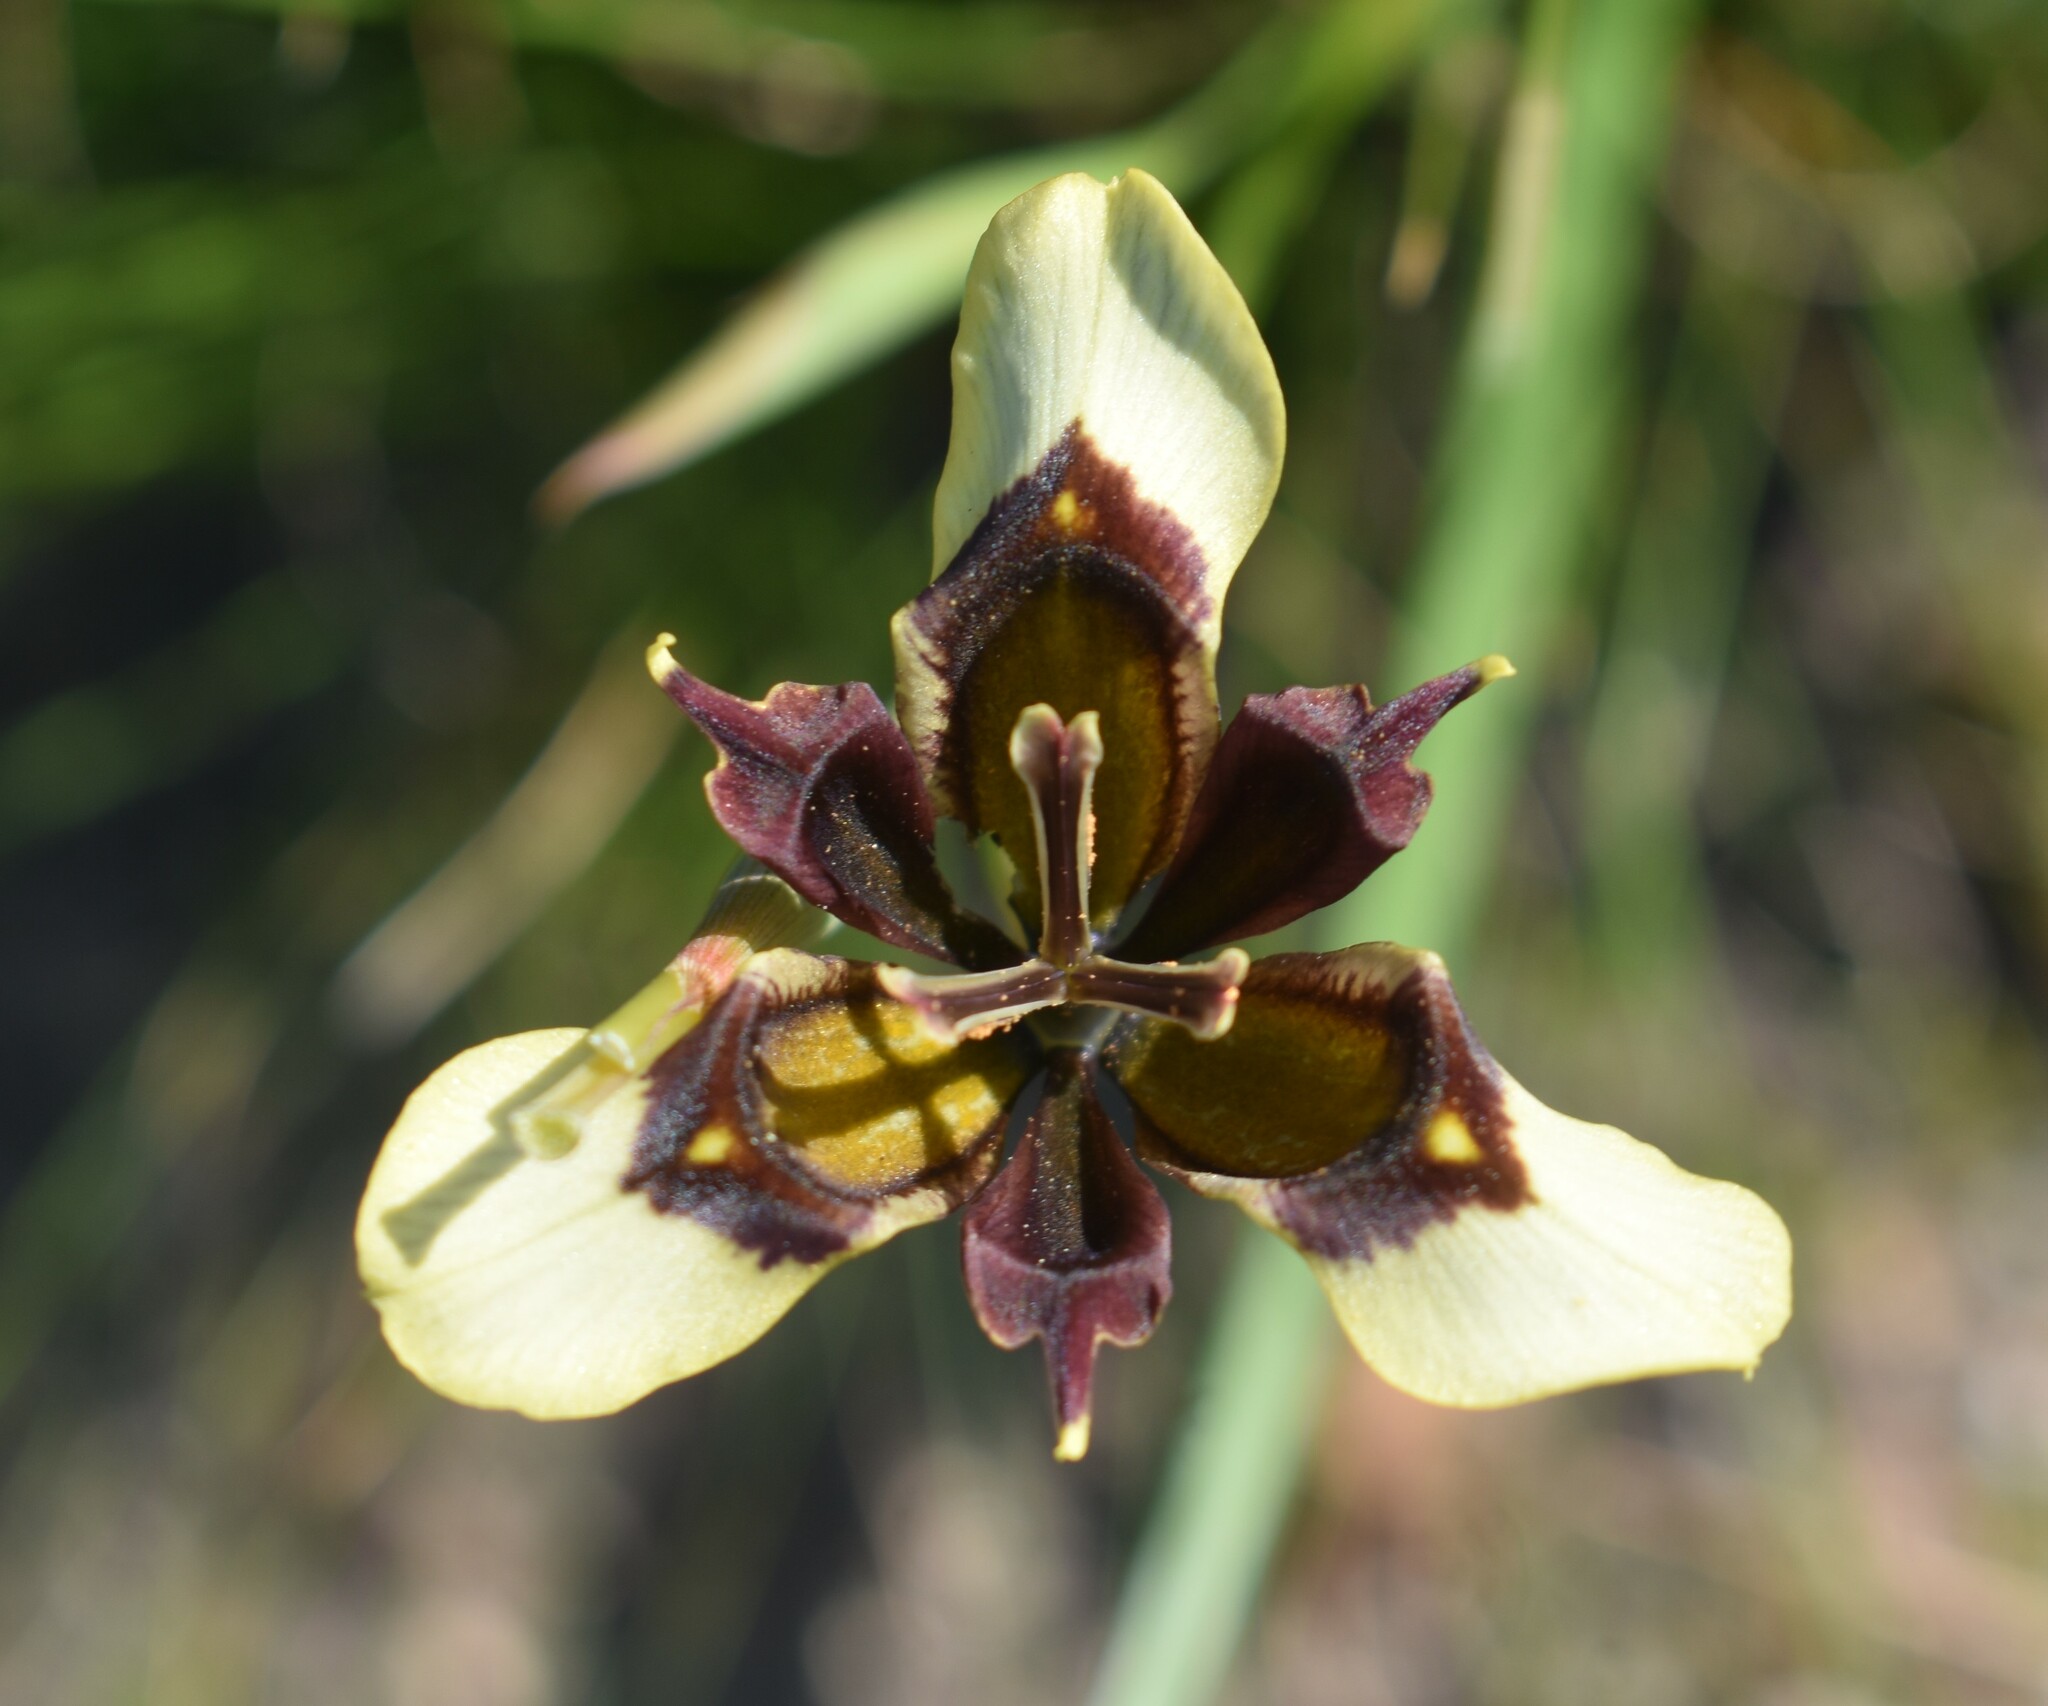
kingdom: Plantae
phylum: Tracheophyta
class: Liliopsida
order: Asparagales
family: Iridaceae
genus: Moraea
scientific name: Moraea lurida
